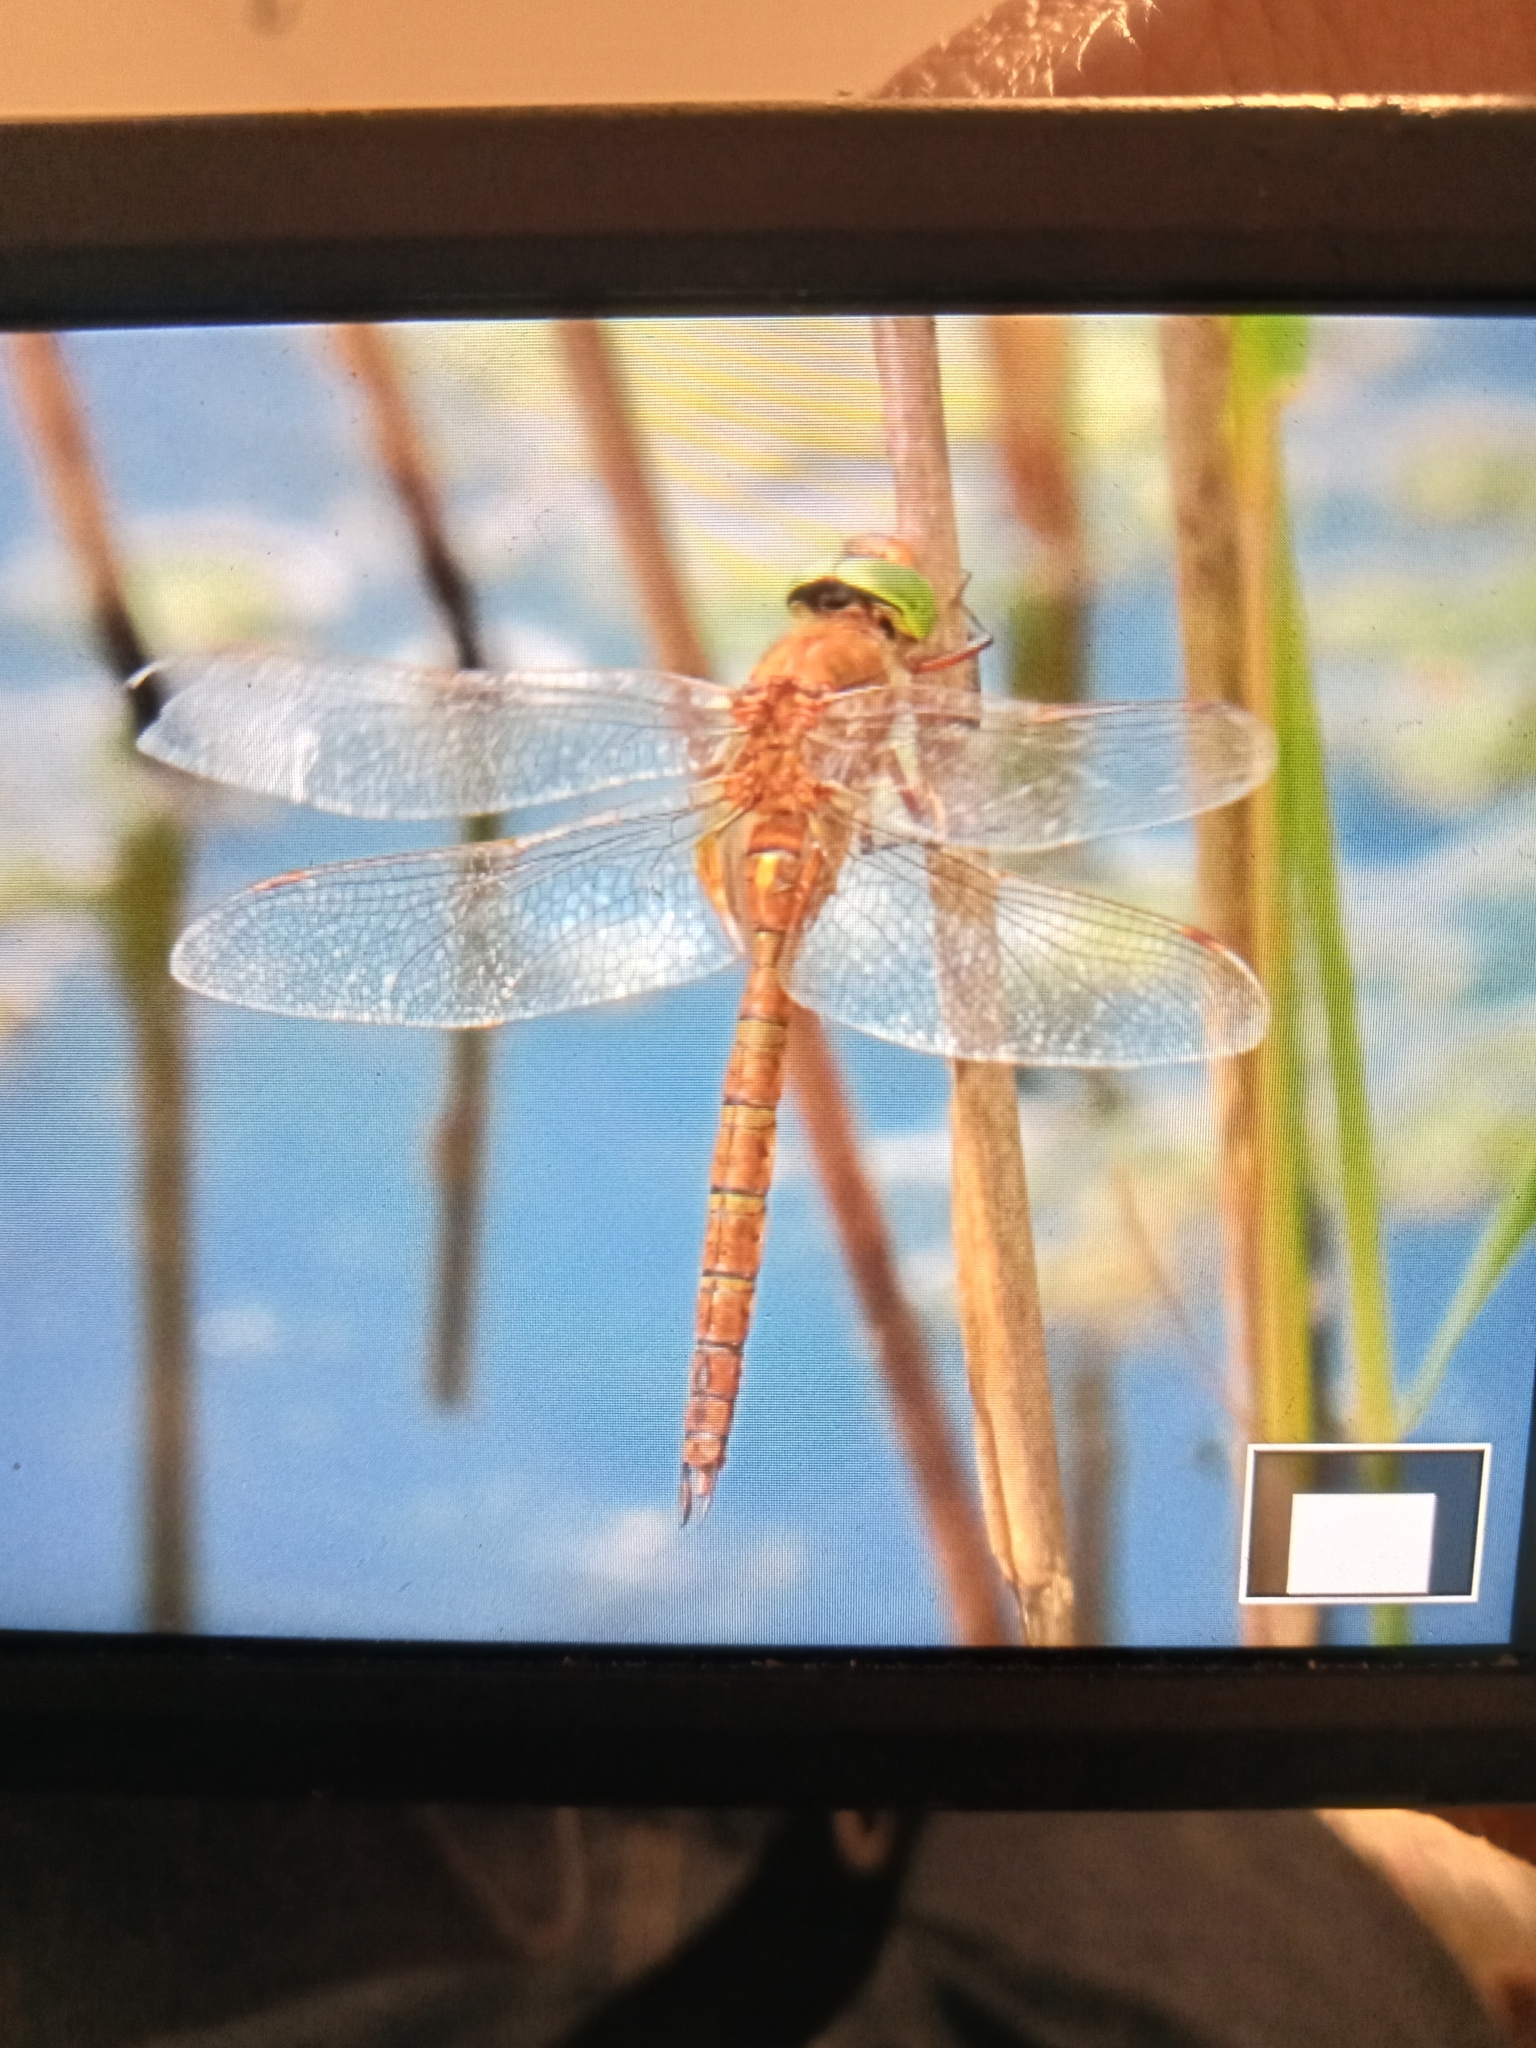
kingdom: Animalia
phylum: Arthropoda
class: Insecta
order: Odonata
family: Aeshnidae
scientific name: Aeshnidae
